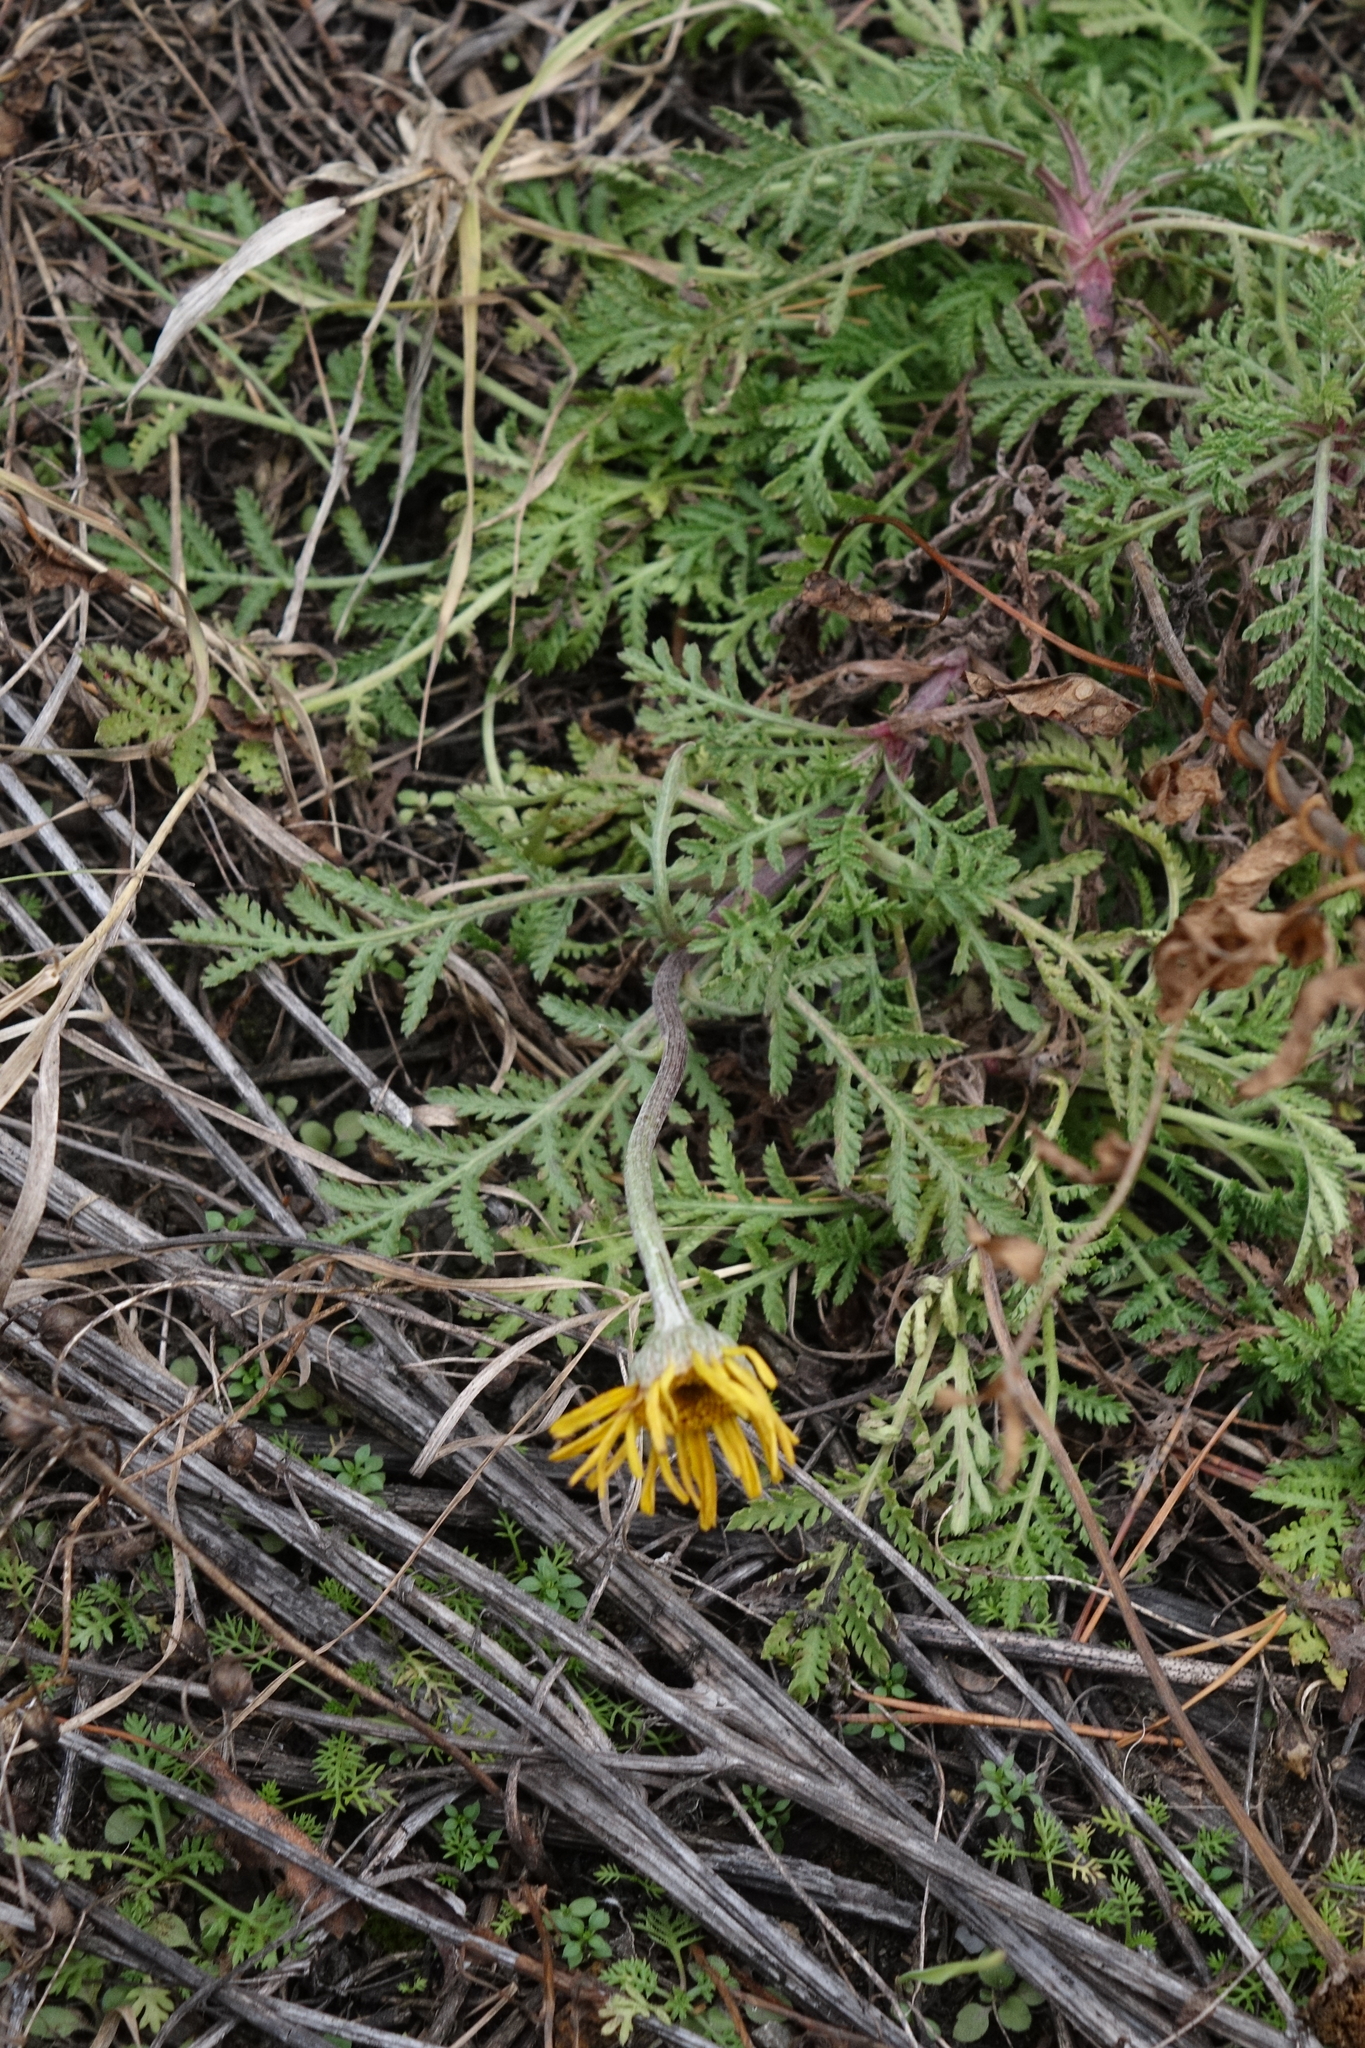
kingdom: Plantae
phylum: Tracheophyta
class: Magnoliopsida
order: Asterales
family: Asteraceae
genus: Cota
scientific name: Cota tinctoria
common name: Golden chamomile
